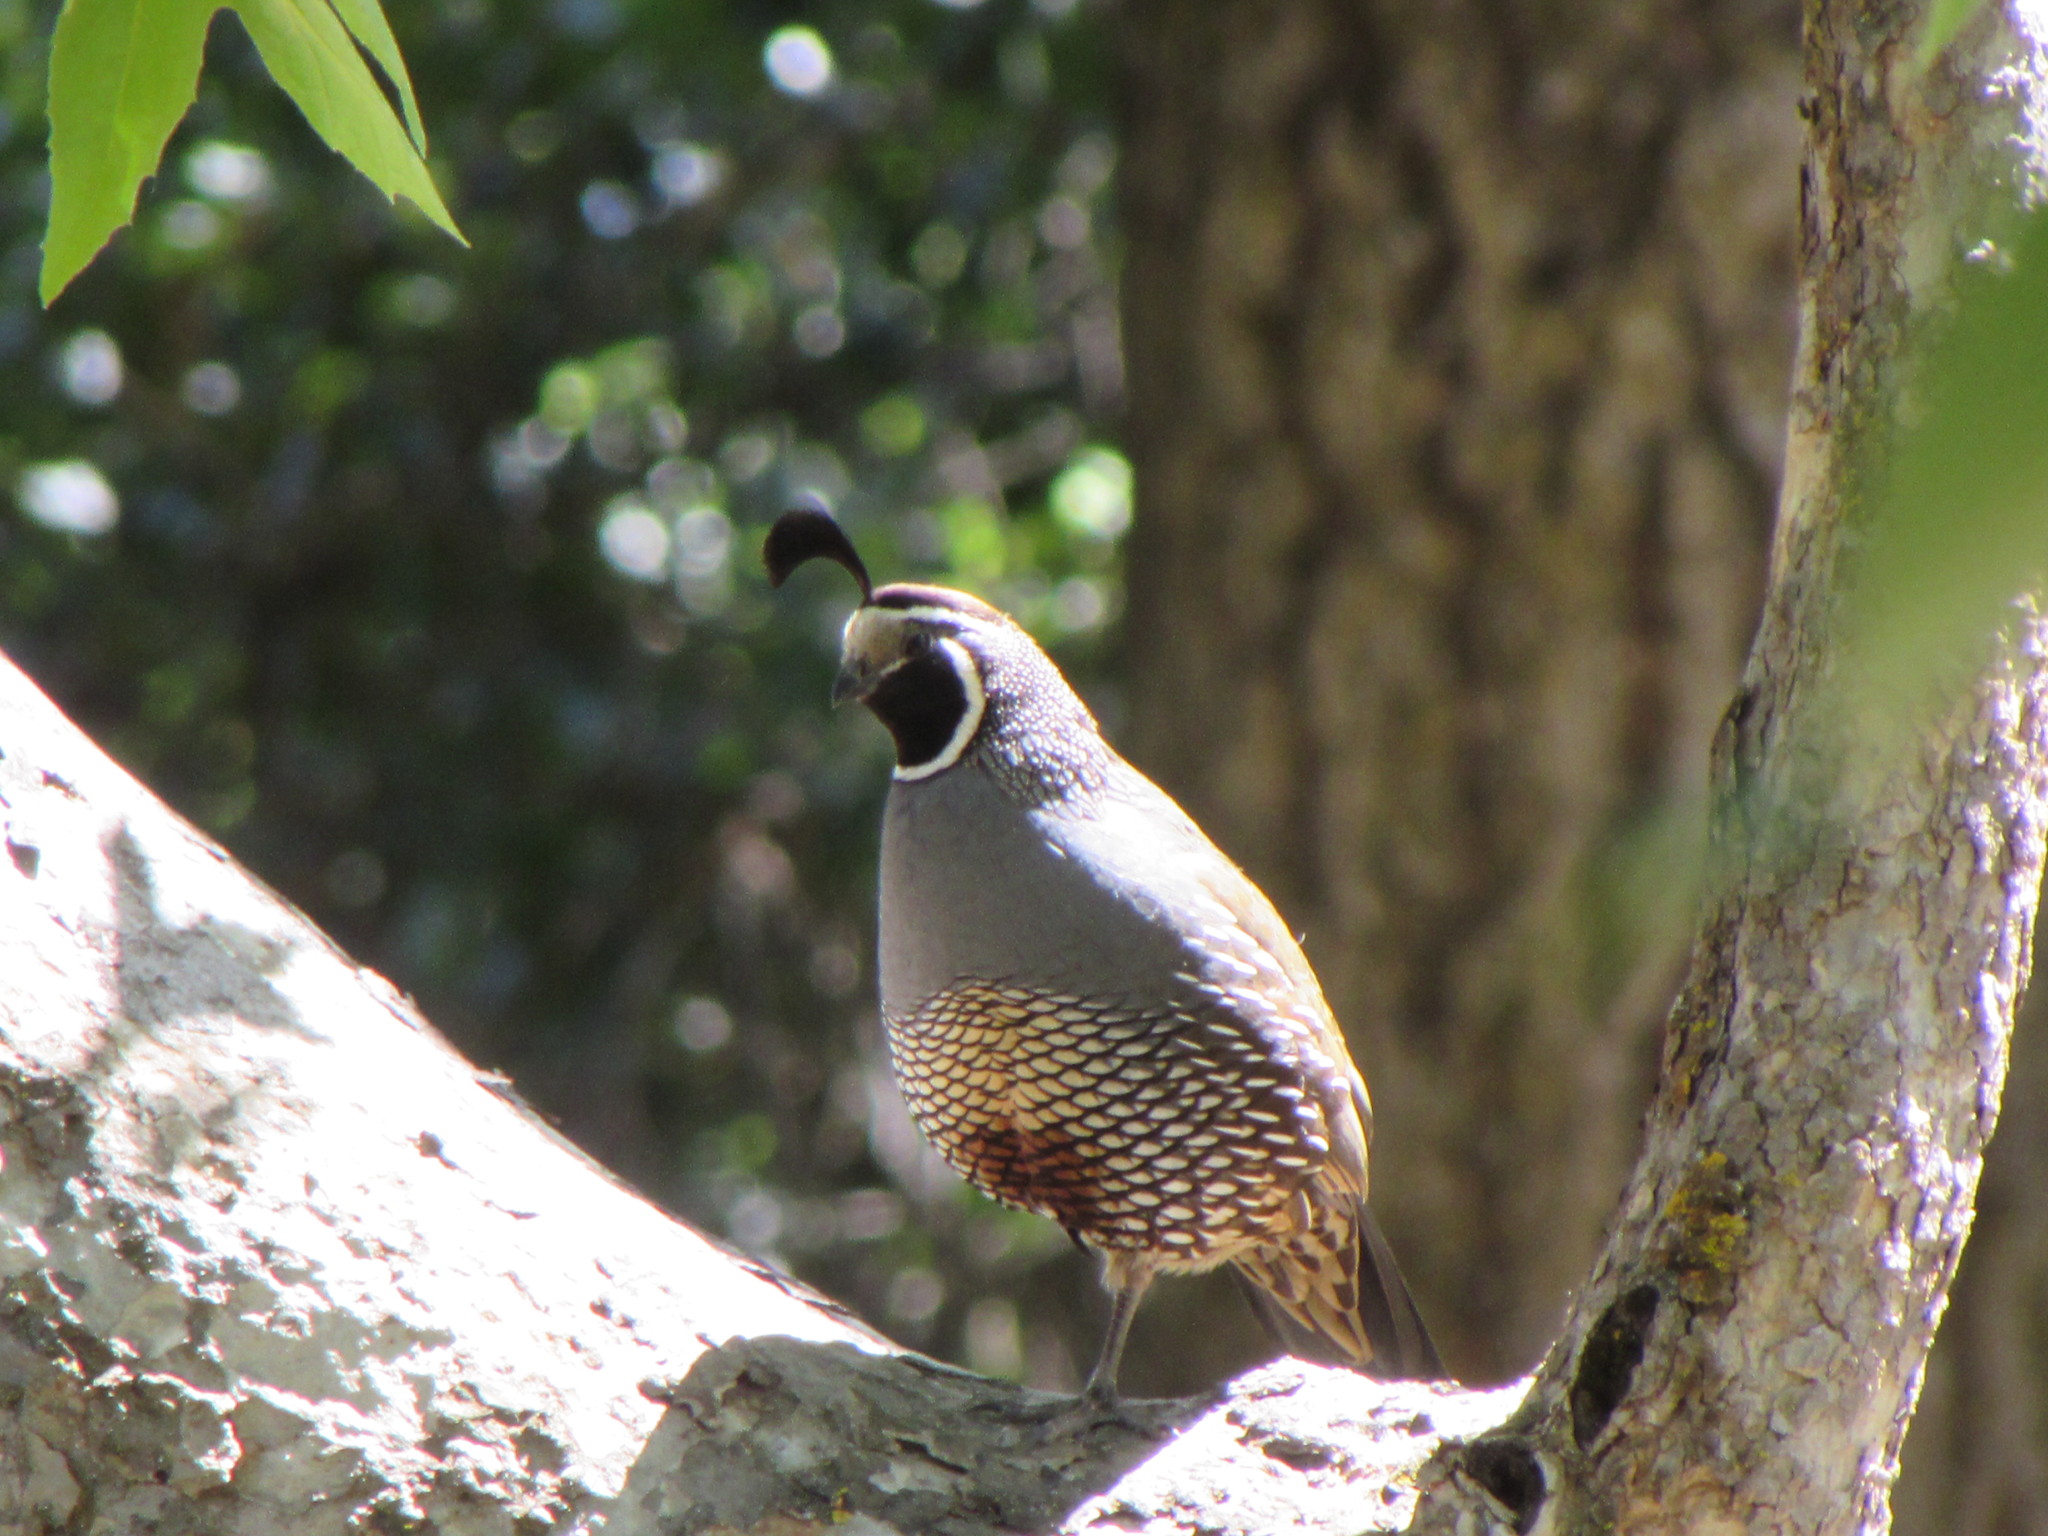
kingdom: Animalia
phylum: Chordata
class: Aves
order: Galliformes
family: Odontophoridae
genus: Callipepla
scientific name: Callipepla californica
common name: California quail
